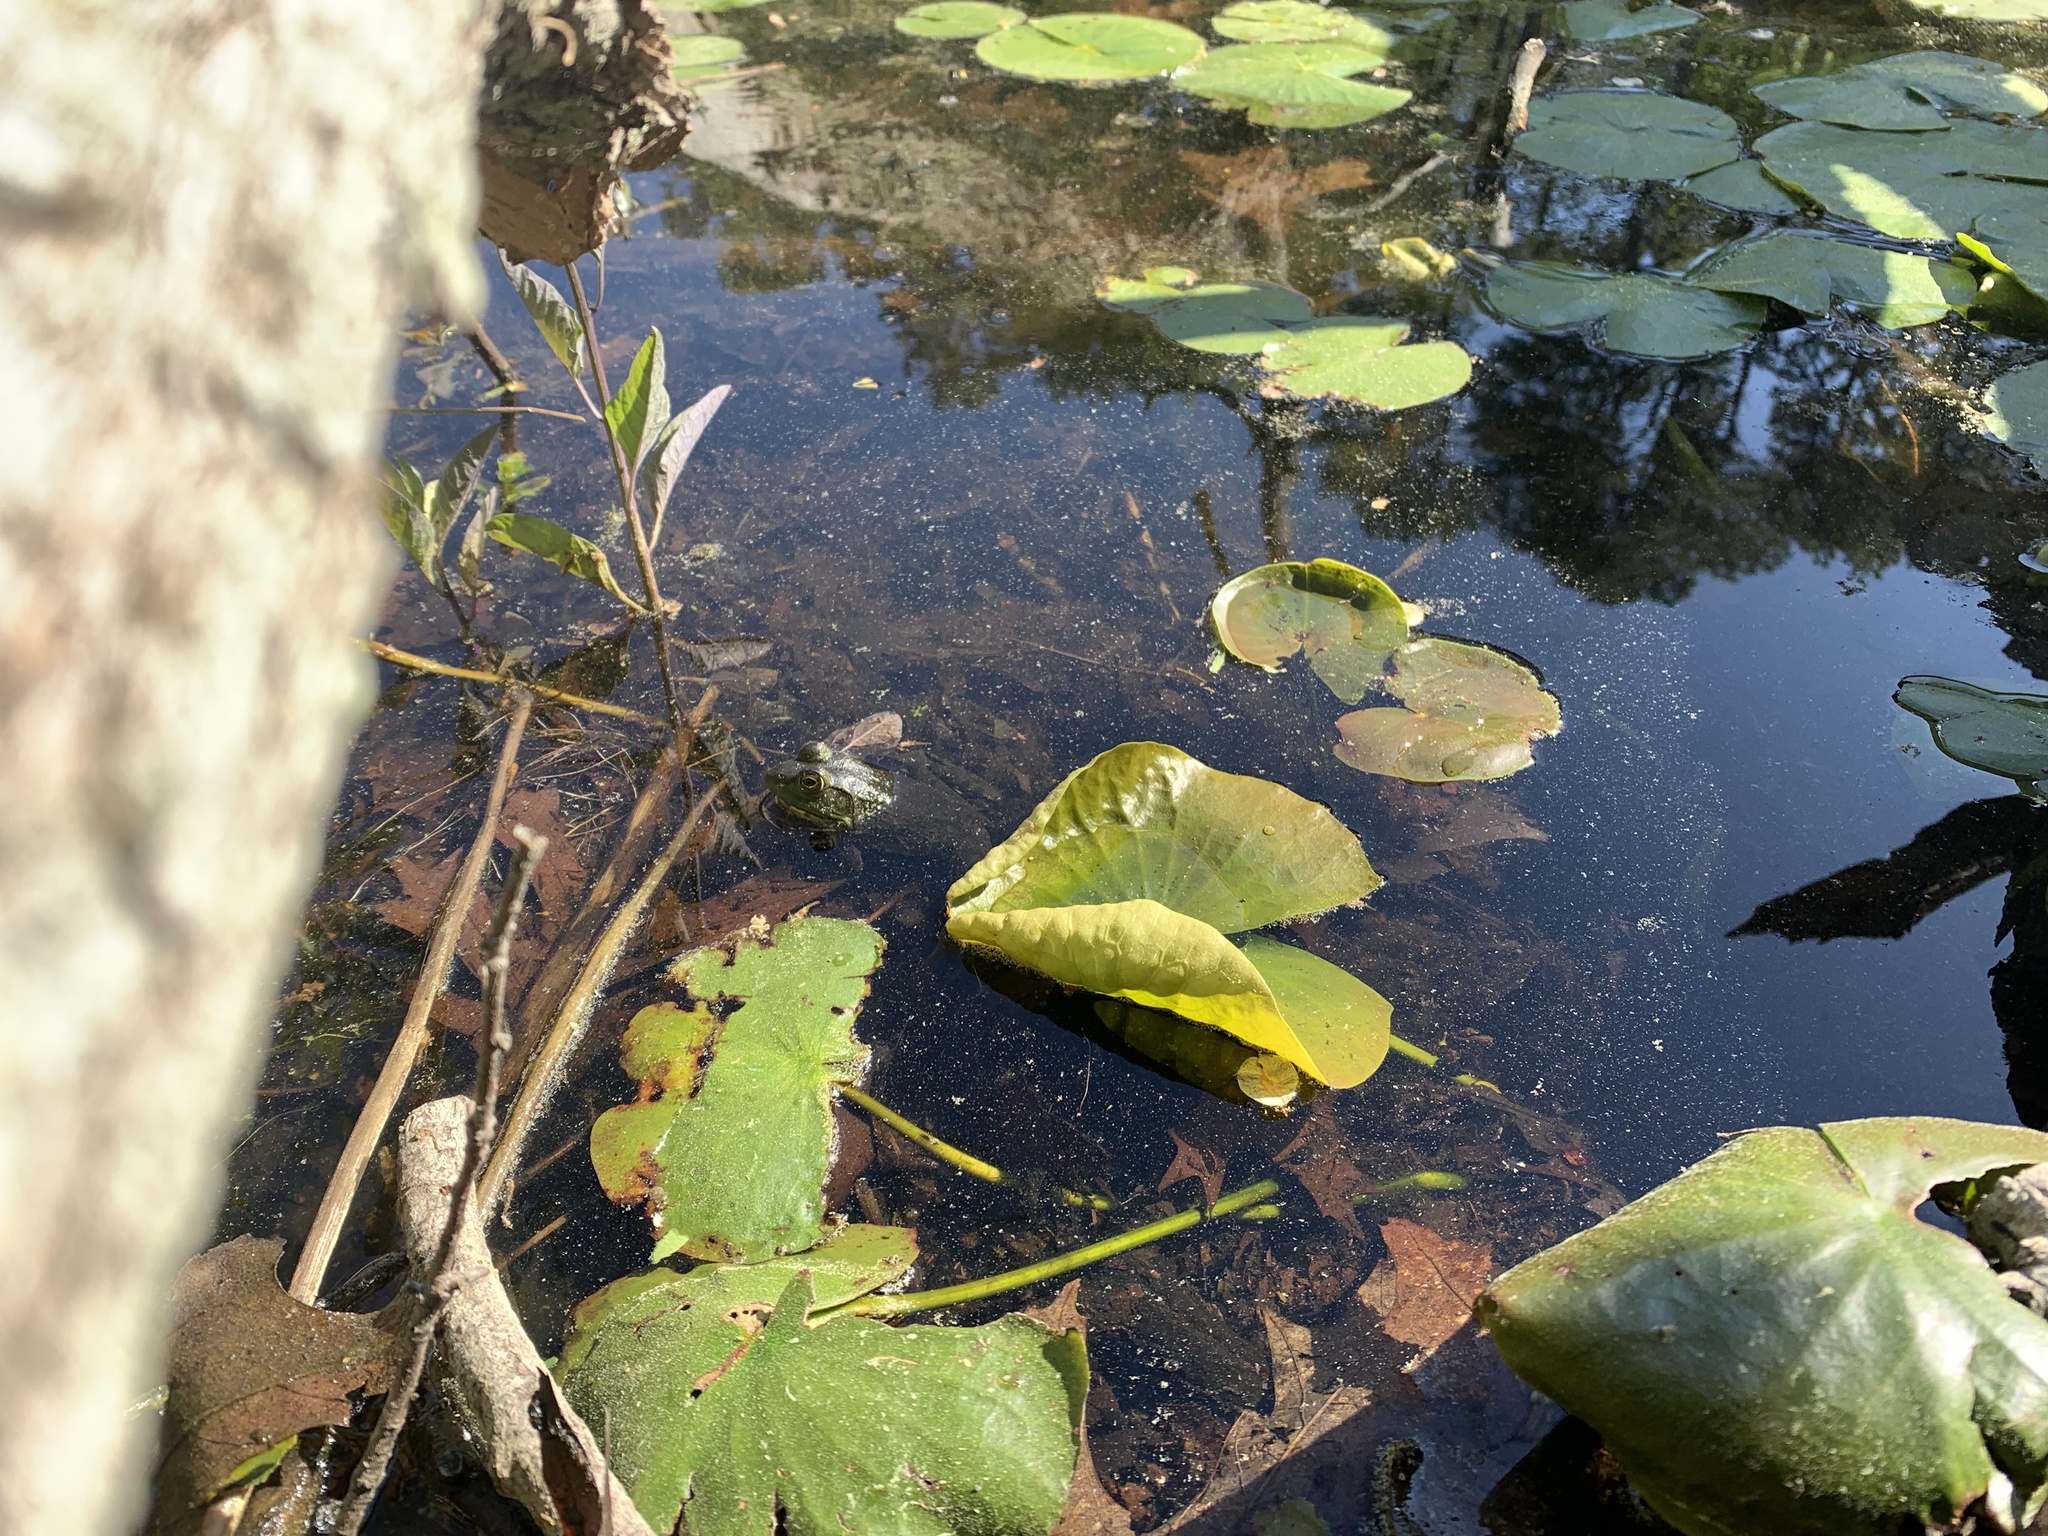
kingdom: Animalia
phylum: Chordata
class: Amphibia
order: Anura
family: Ranidae
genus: Lithobates
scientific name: Lithobates catesbeianus
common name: American bullfrog
